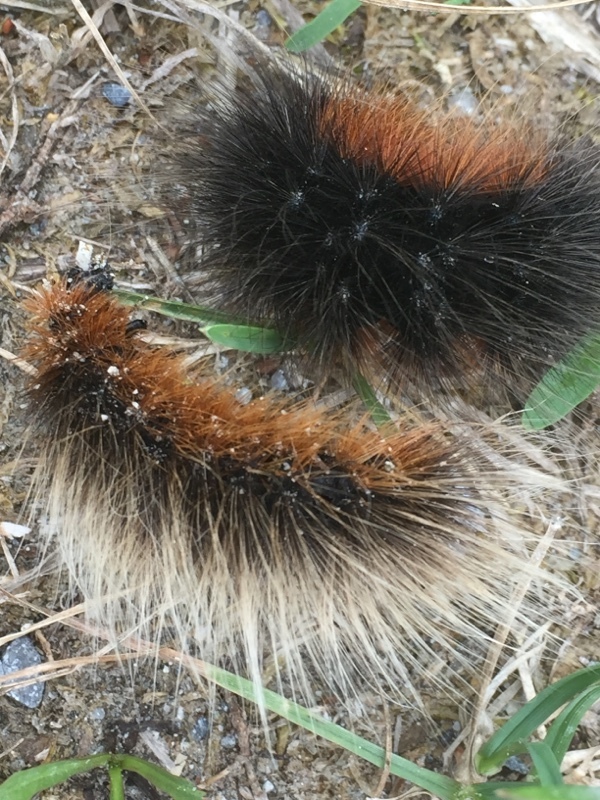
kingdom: Animalia
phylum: Arthropoda
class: Insecta
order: Lepidoptera
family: Erebidae
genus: Arctia
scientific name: Arctia caja
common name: Garden tiger
